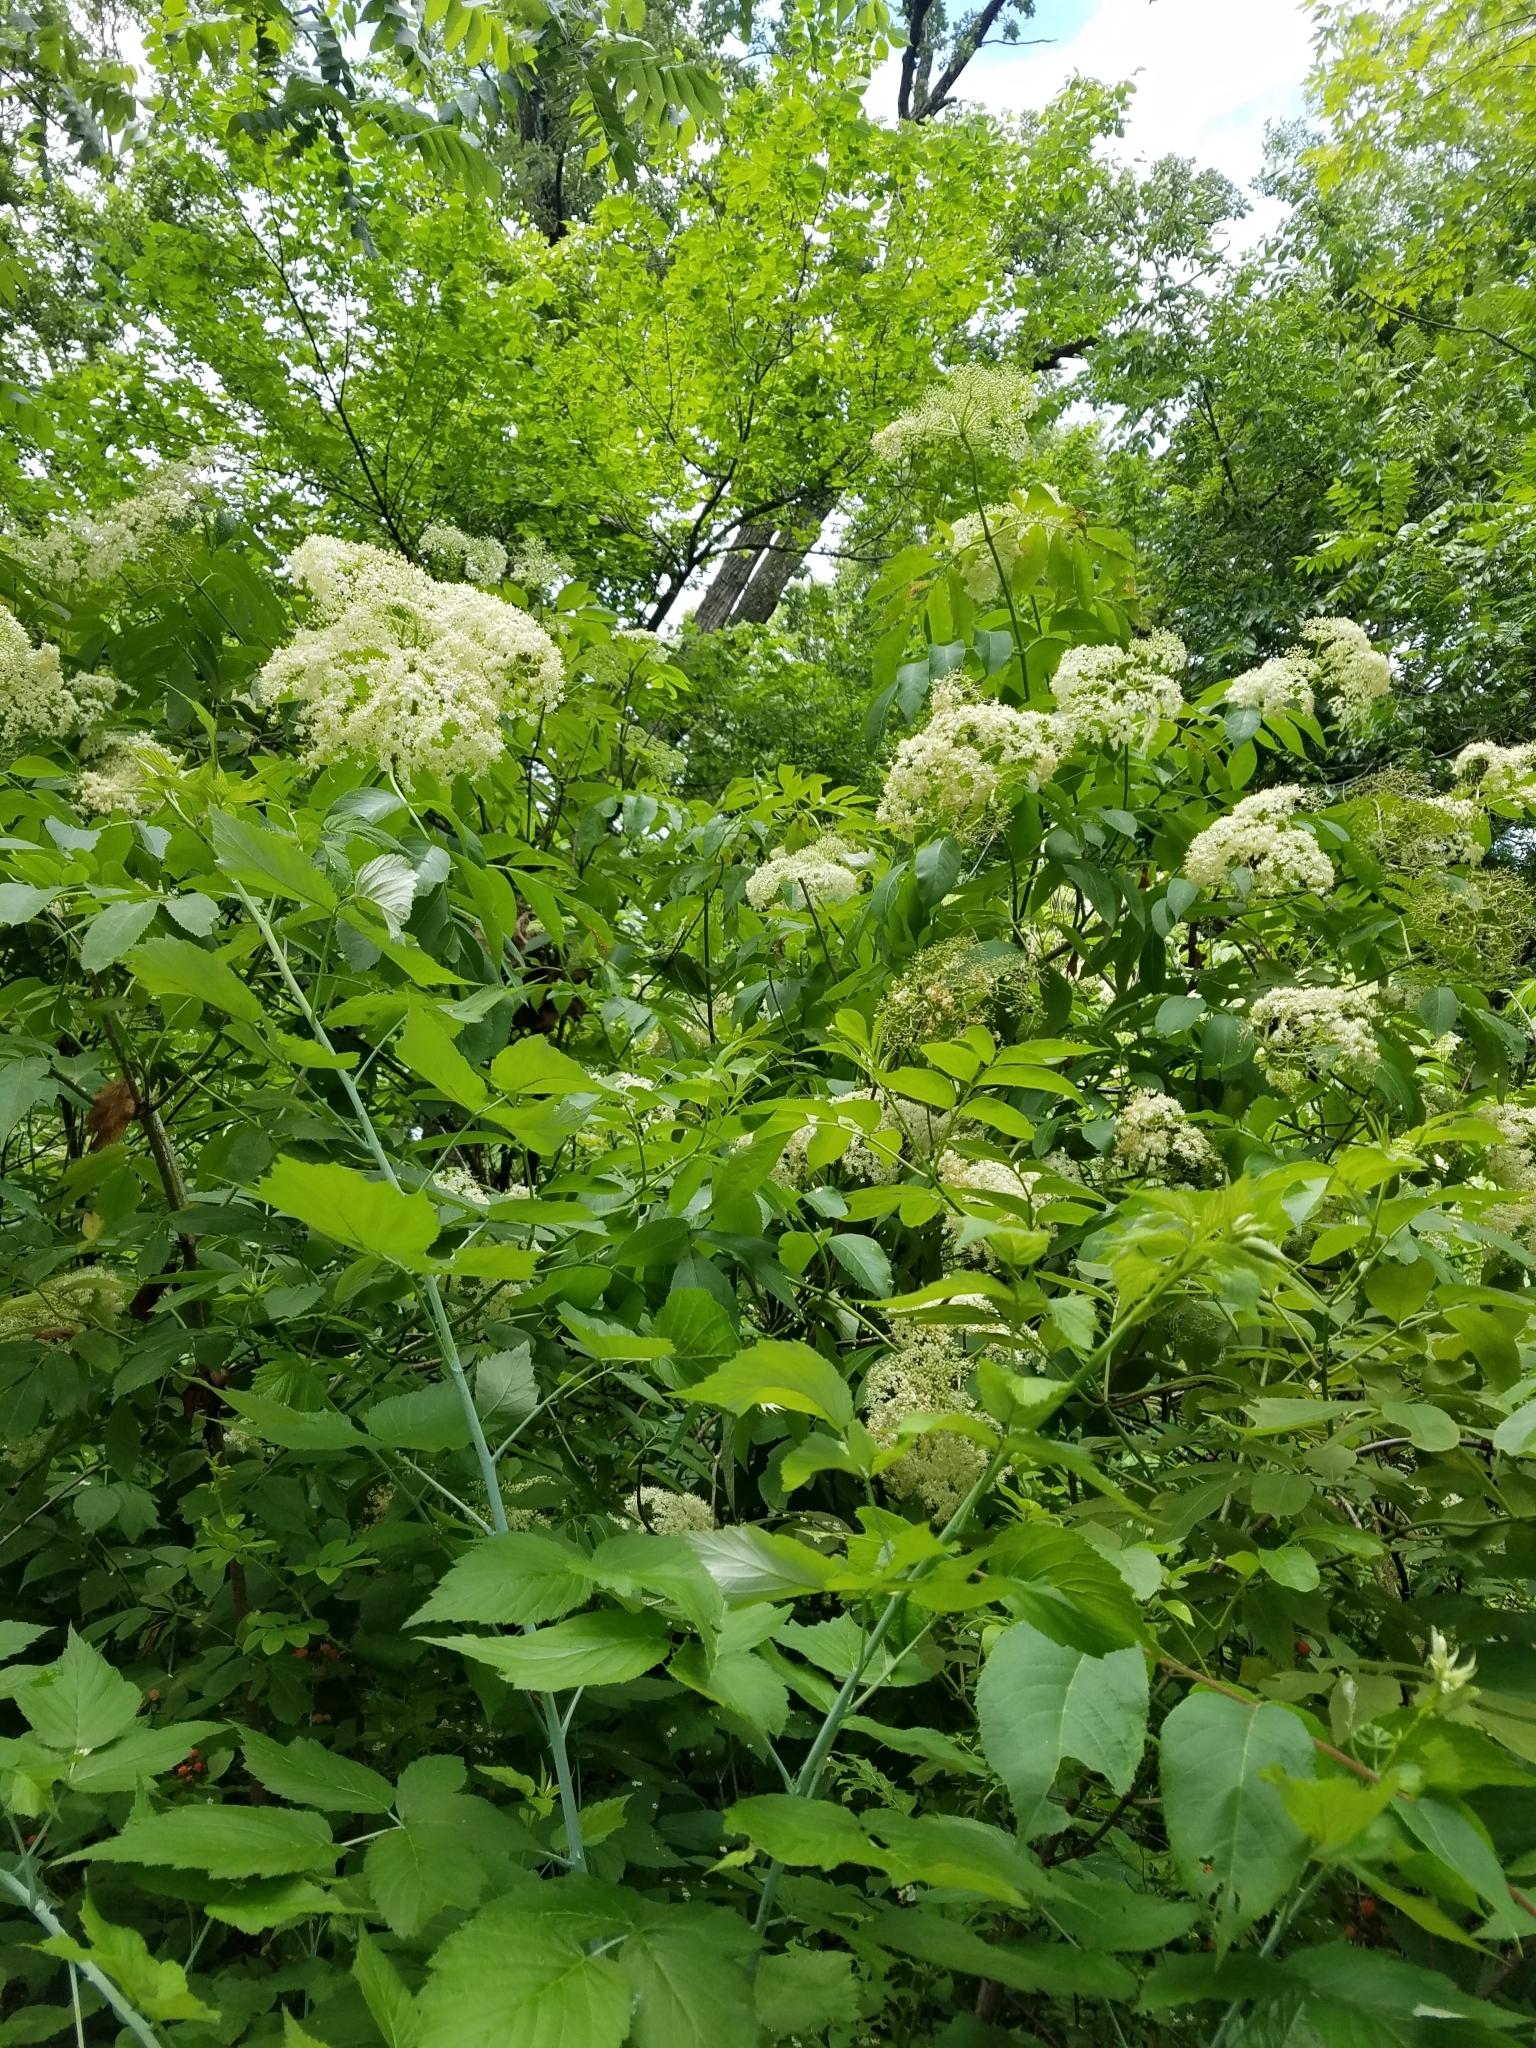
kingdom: Plantae
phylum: Tracheophyta
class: Magnoliopsida
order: Dipsacales
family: Viburnaceae
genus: Sambucus
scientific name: Sambucus canadensis
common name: American elder
